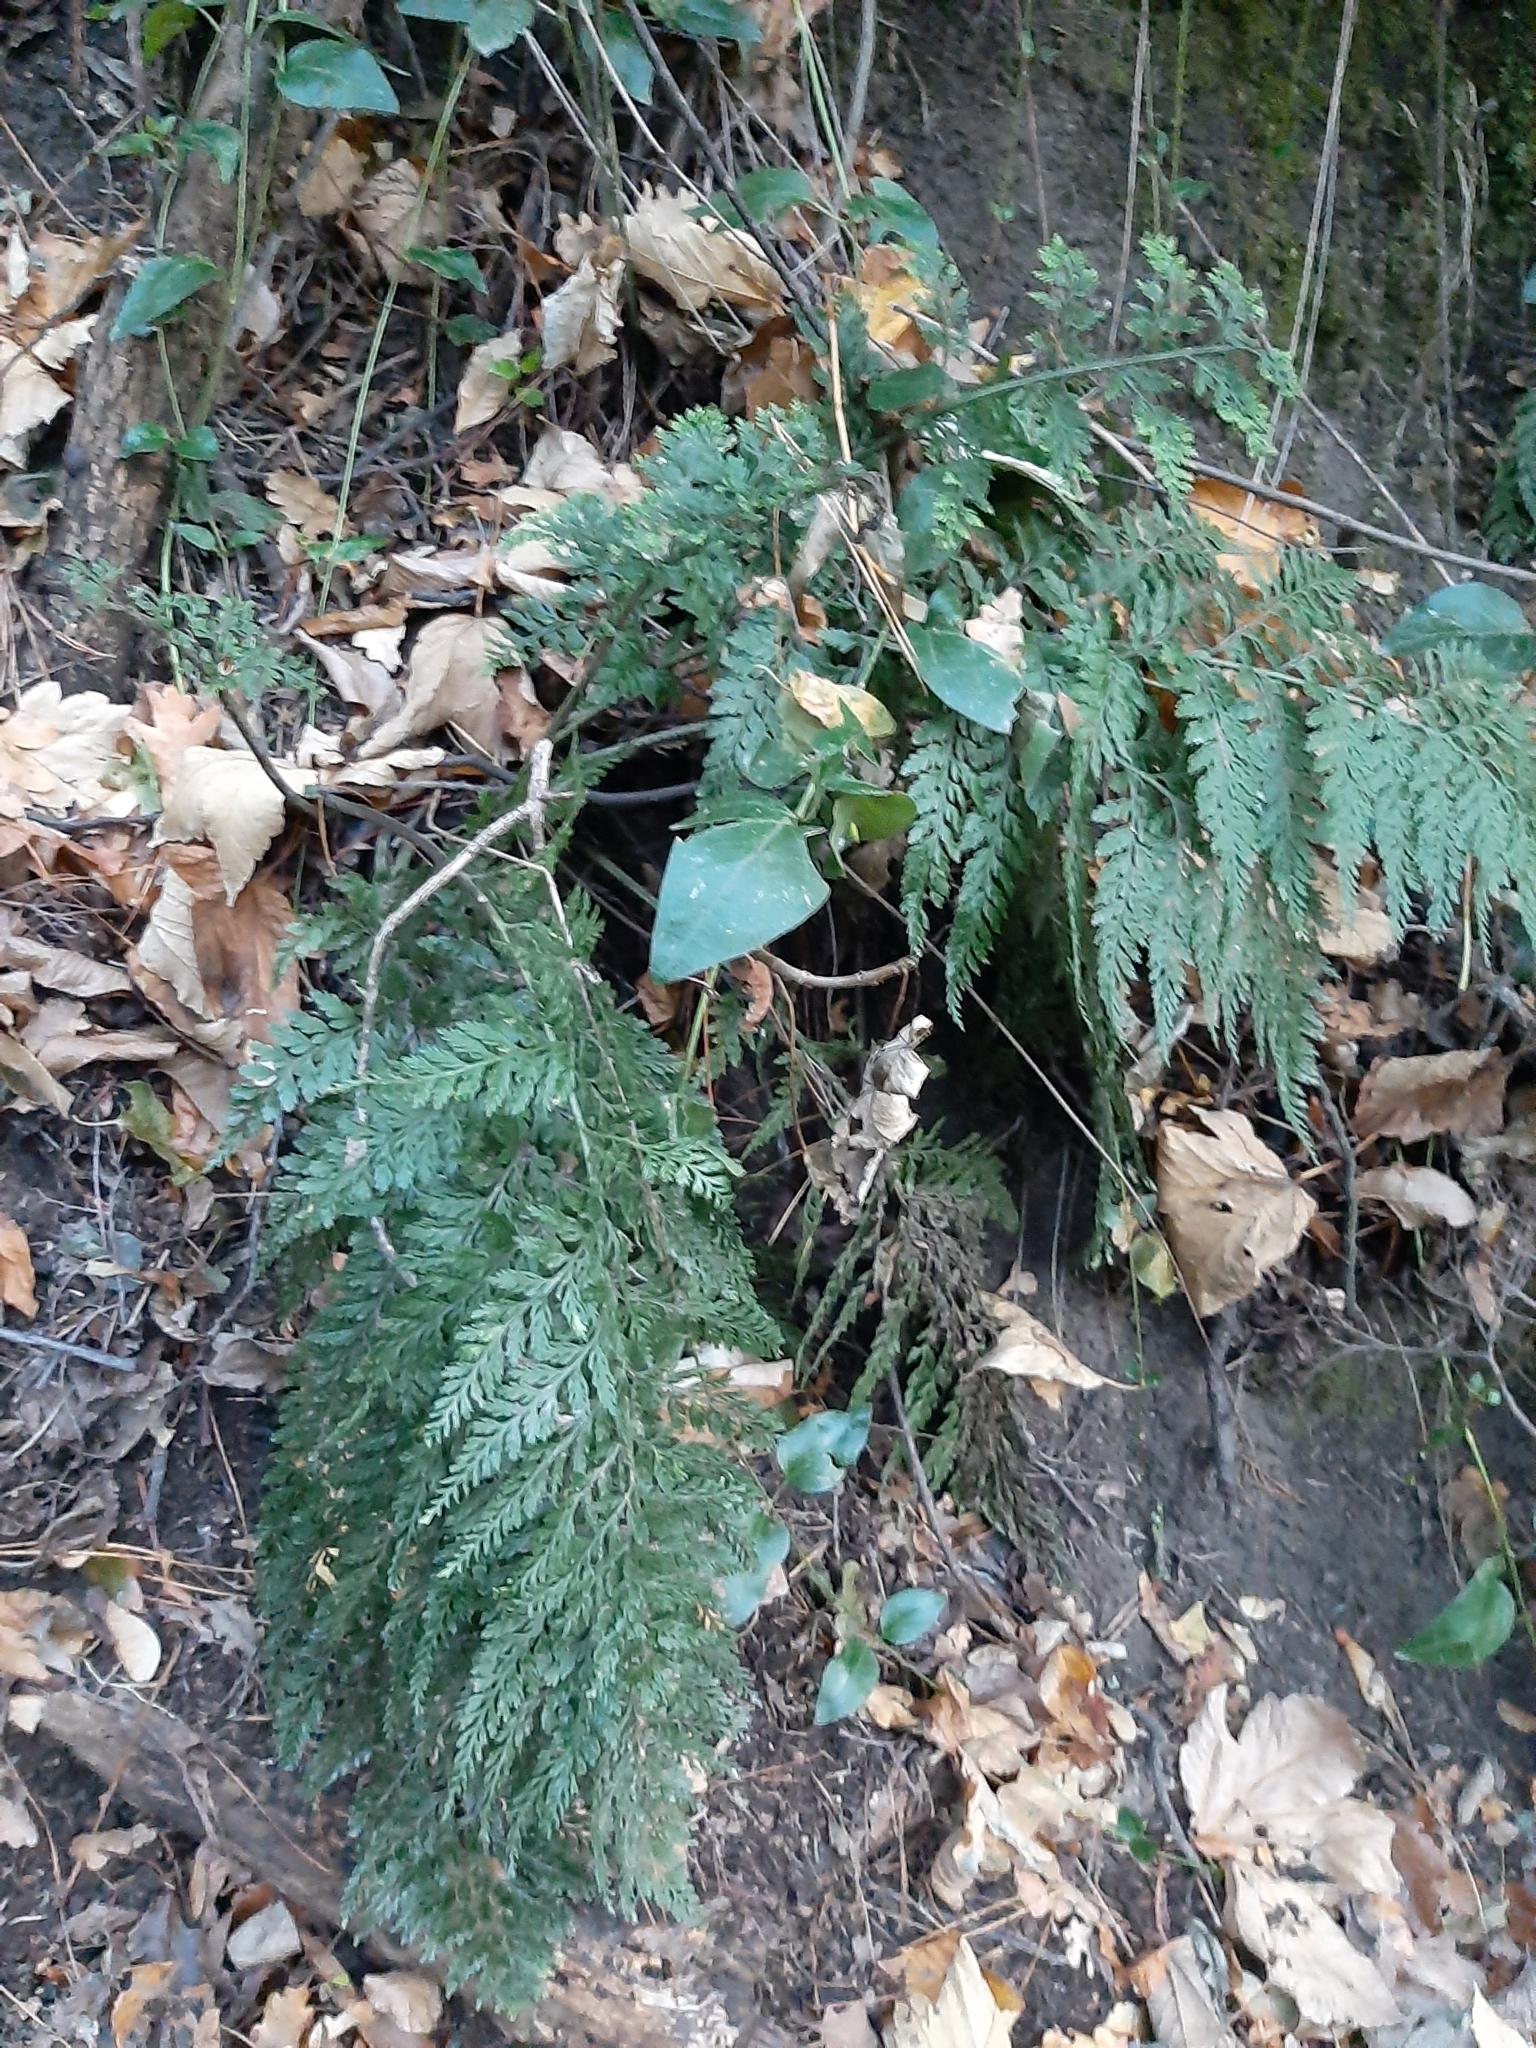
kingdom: Plantae
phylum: Tracheophyta
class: Polypodiopsida
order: Polypodiales
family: Aspleniaceae
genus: Asplenium
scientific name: Asplenium
